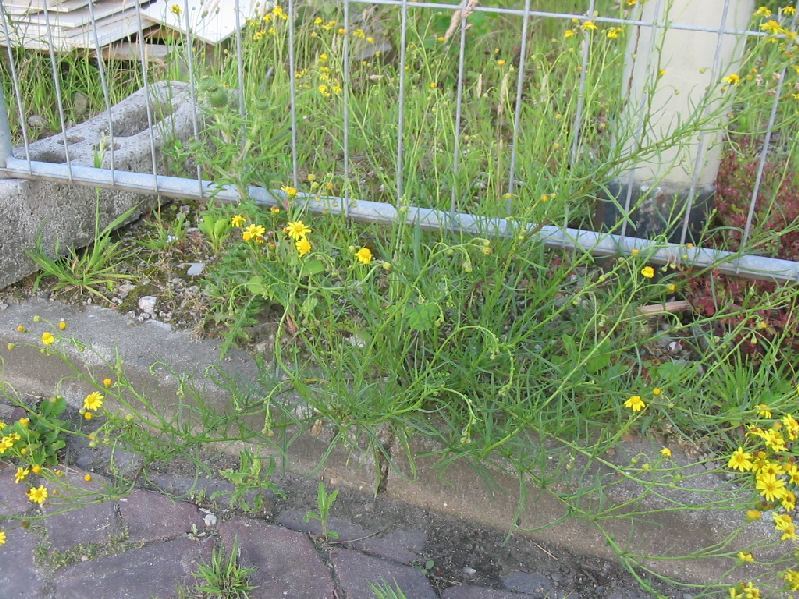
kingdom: Plantae
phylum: Tracheophyta
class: Magnoliopsida
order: Asterales
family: Asteraceae
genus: Senecio
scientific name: Senecio inaequidens
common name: Narrow-leaved ragwort
